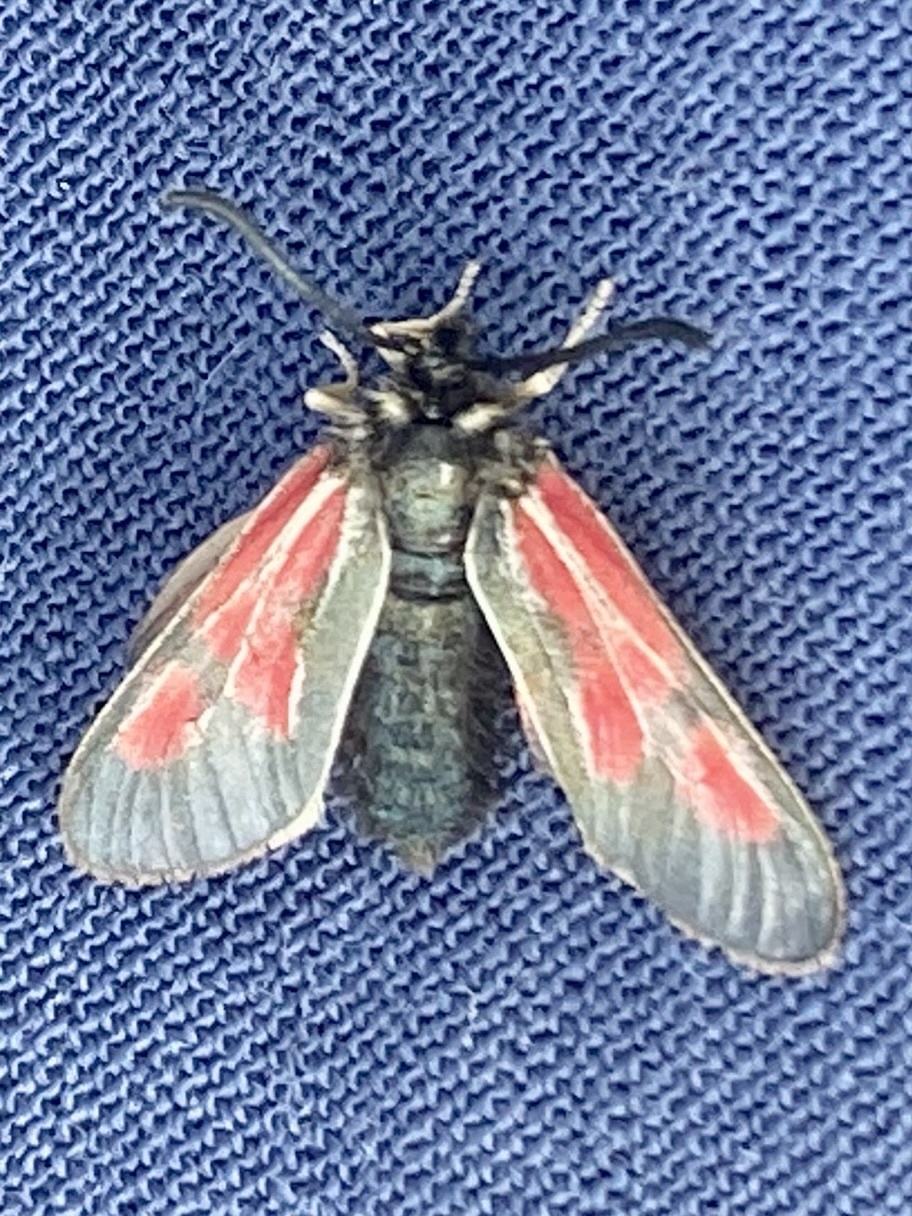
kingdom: Animalia
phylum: Arthropoda
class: Insecta
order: Lepidoptera
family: Zygaenidae
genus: Zygaena
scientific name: Zygaena exulans
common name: Scotch burnet
